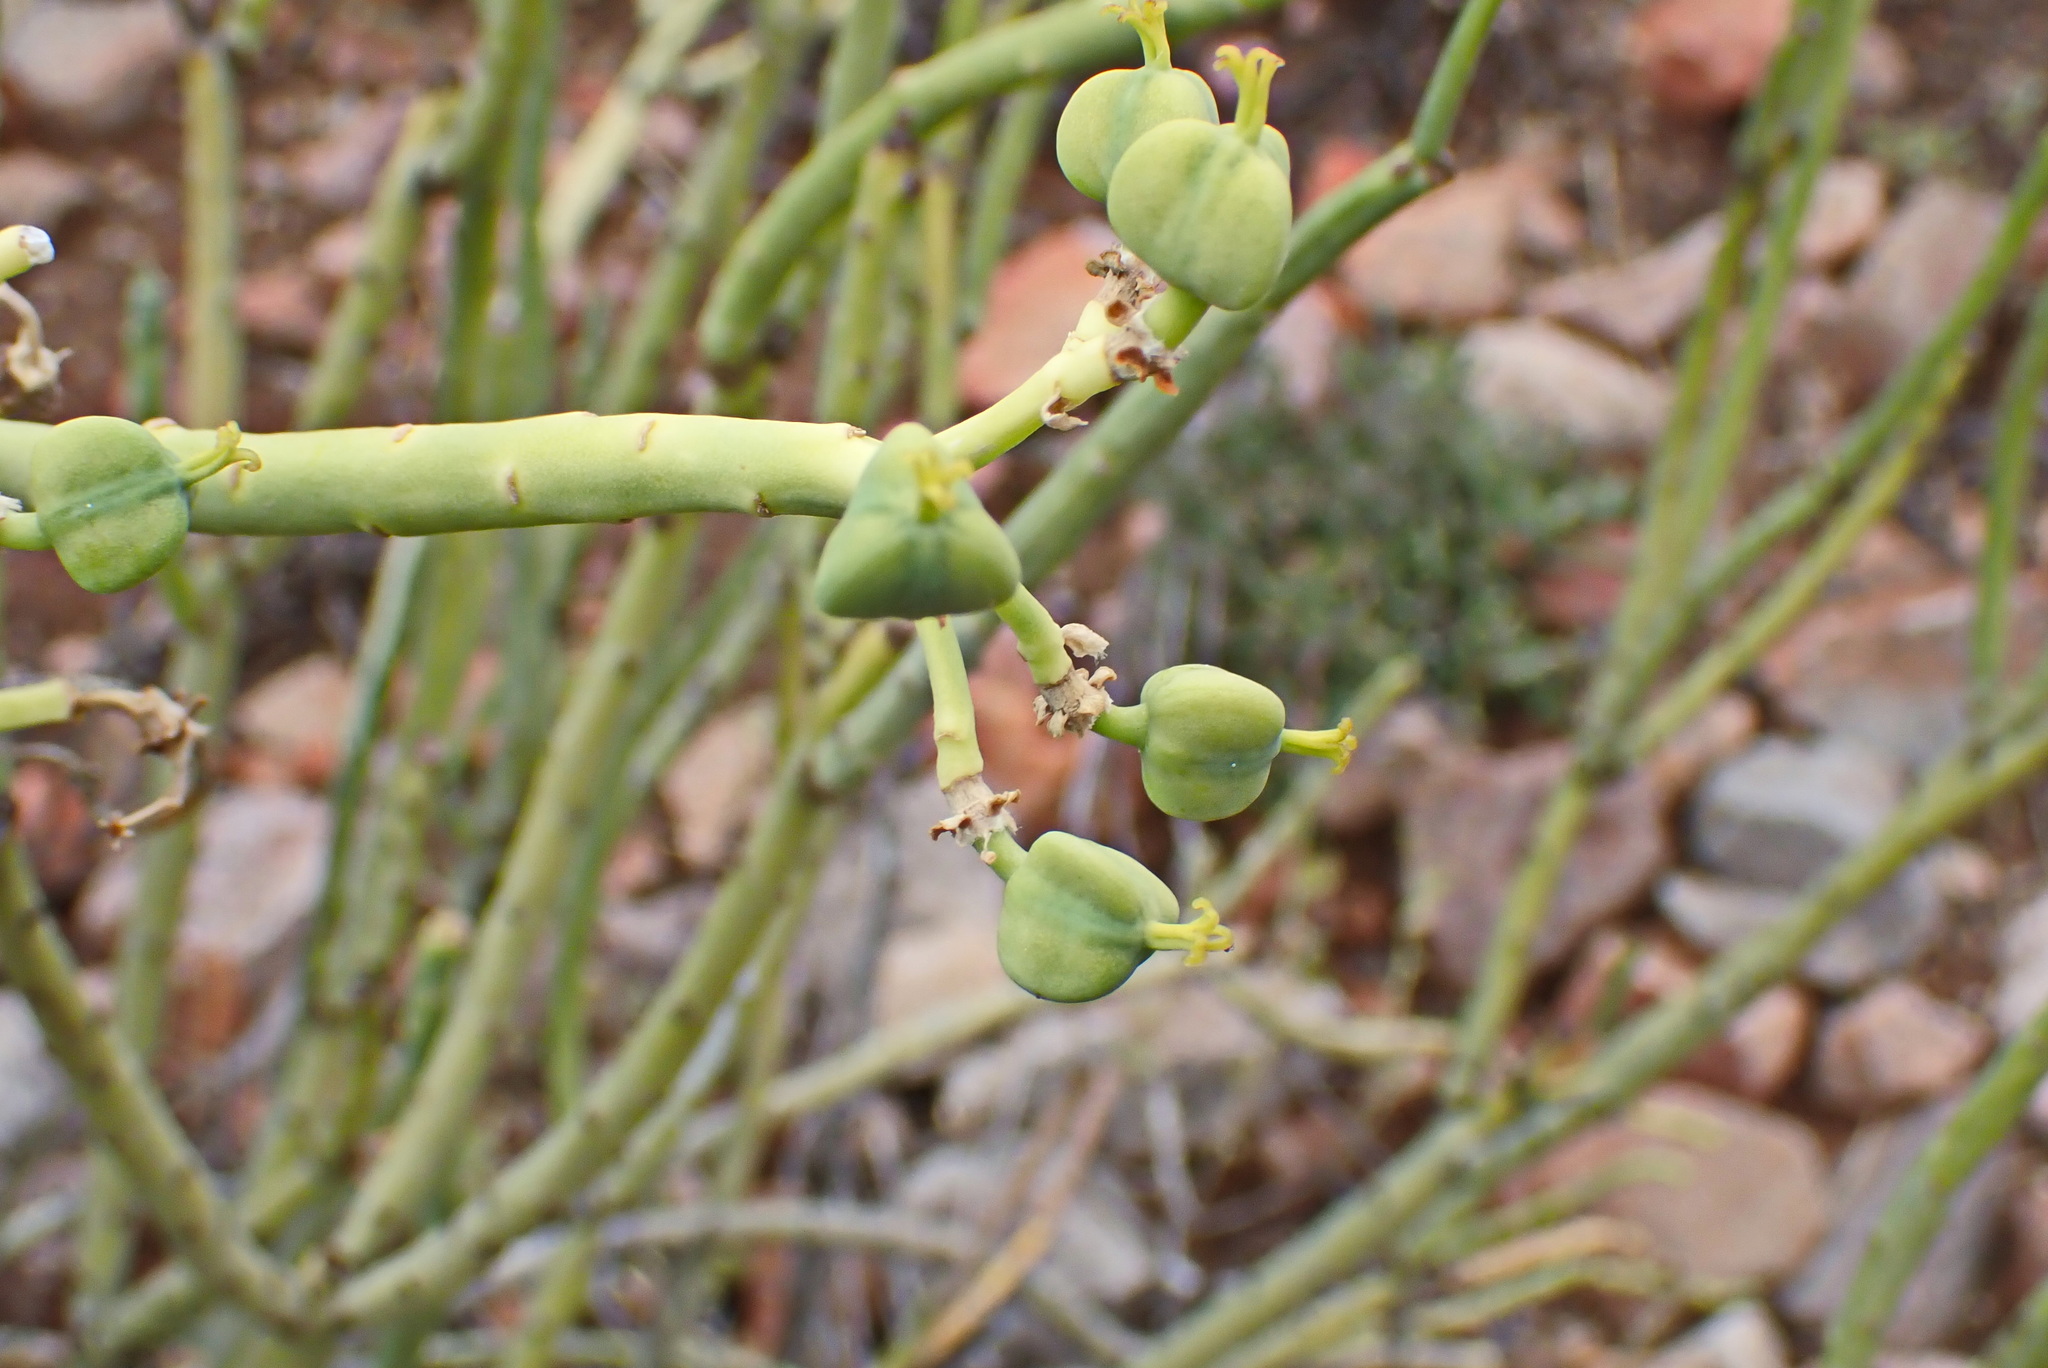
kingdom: Plantae
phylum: Tracheophyta
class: Magnoliopsida
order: Malpighiales
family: Euphorbiaceae
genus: Euphorbia
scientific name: Euphorbia mauritanica
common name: Jackal's-food
